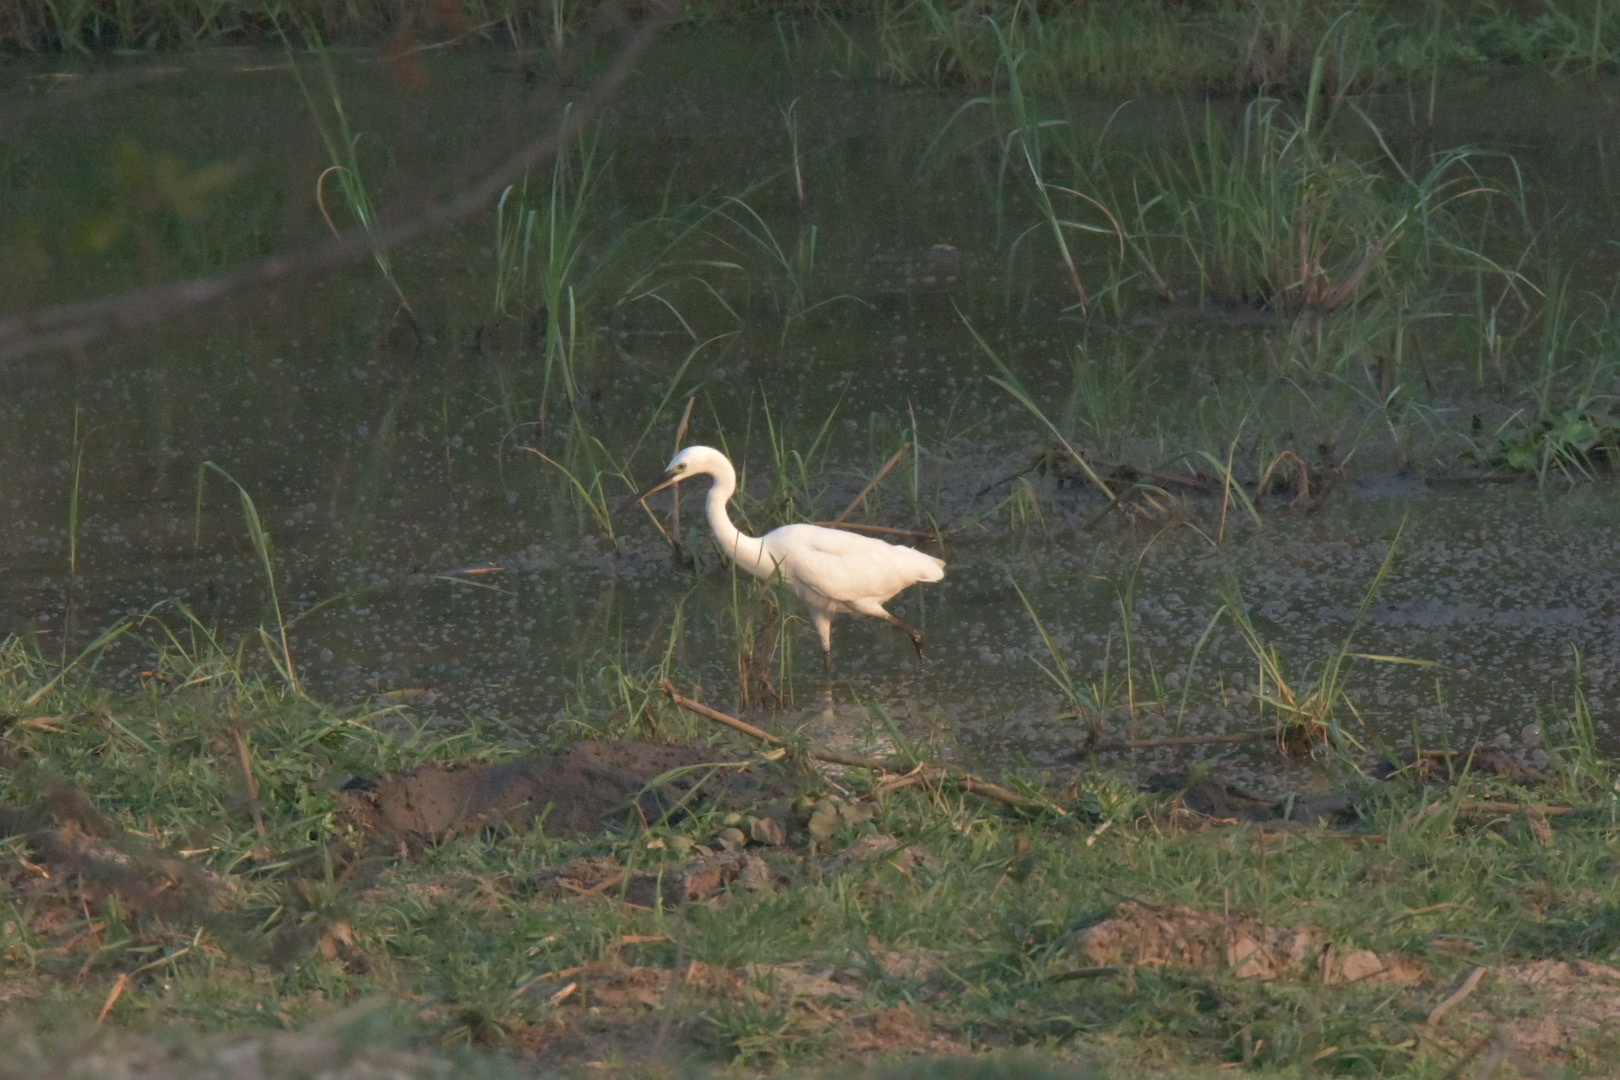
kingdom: Animalia
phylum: Chordata
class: Aves
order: Pelecaniformes
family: Ardeidae
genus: Egretta
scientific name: Egretta garzetta
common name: Little egret
